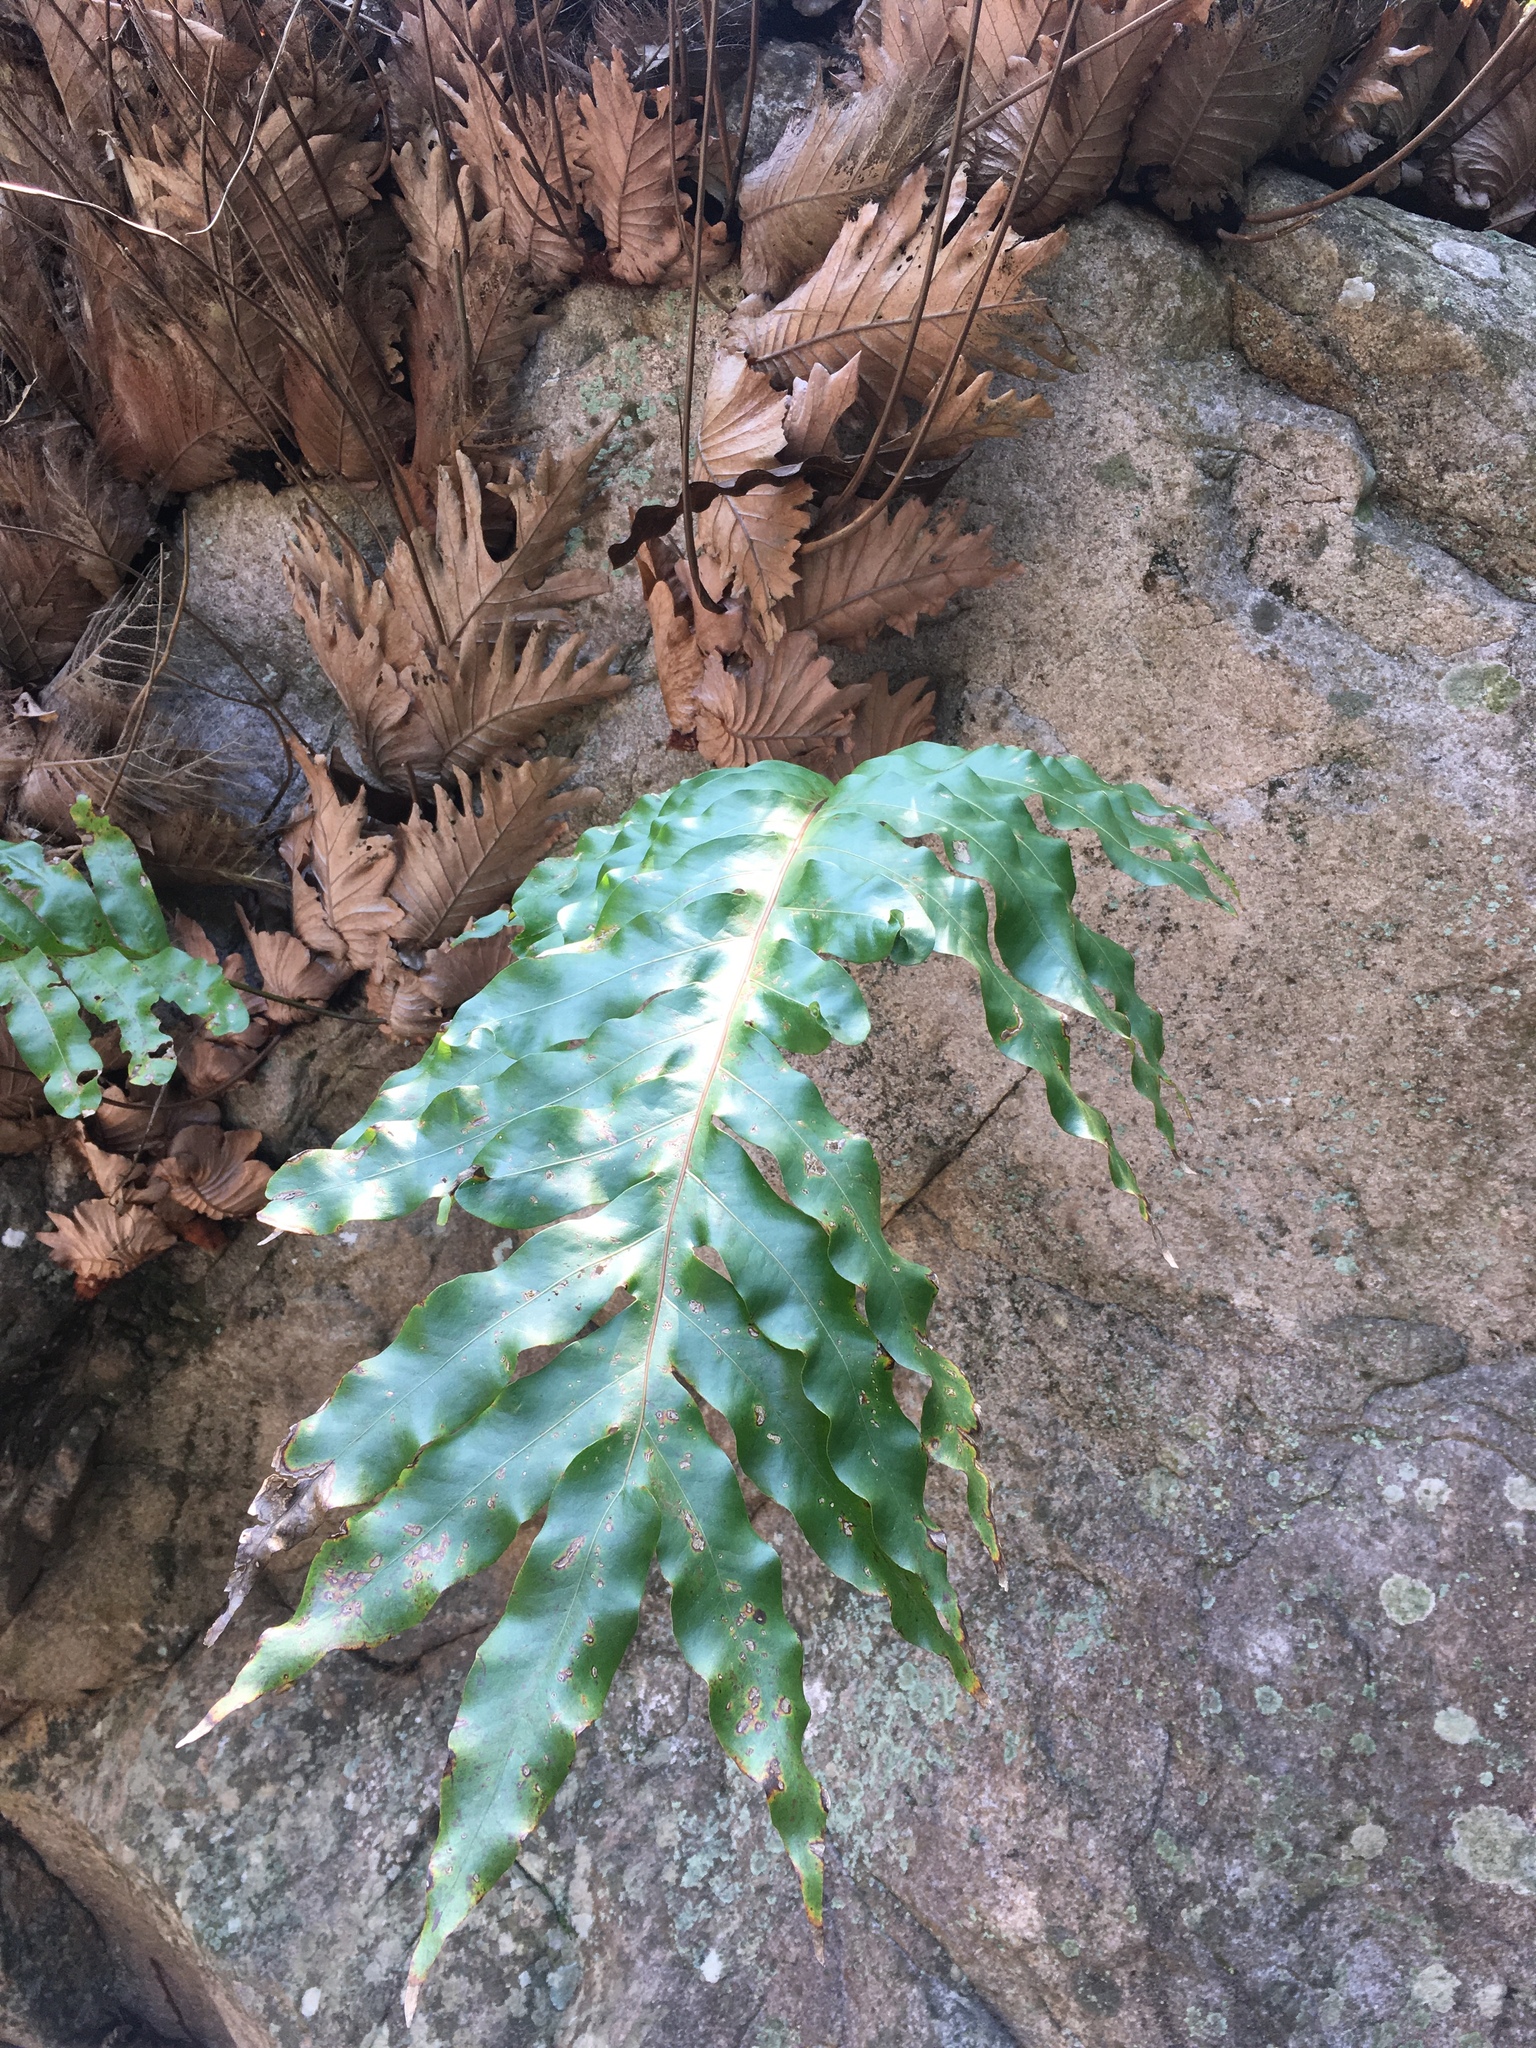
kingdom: Plantae
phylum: Tracheophyta
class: Polypodiopsida
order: Polypodiales
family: Polypodiaceae
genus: Drynaria
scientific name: Drynaria quercifolia
